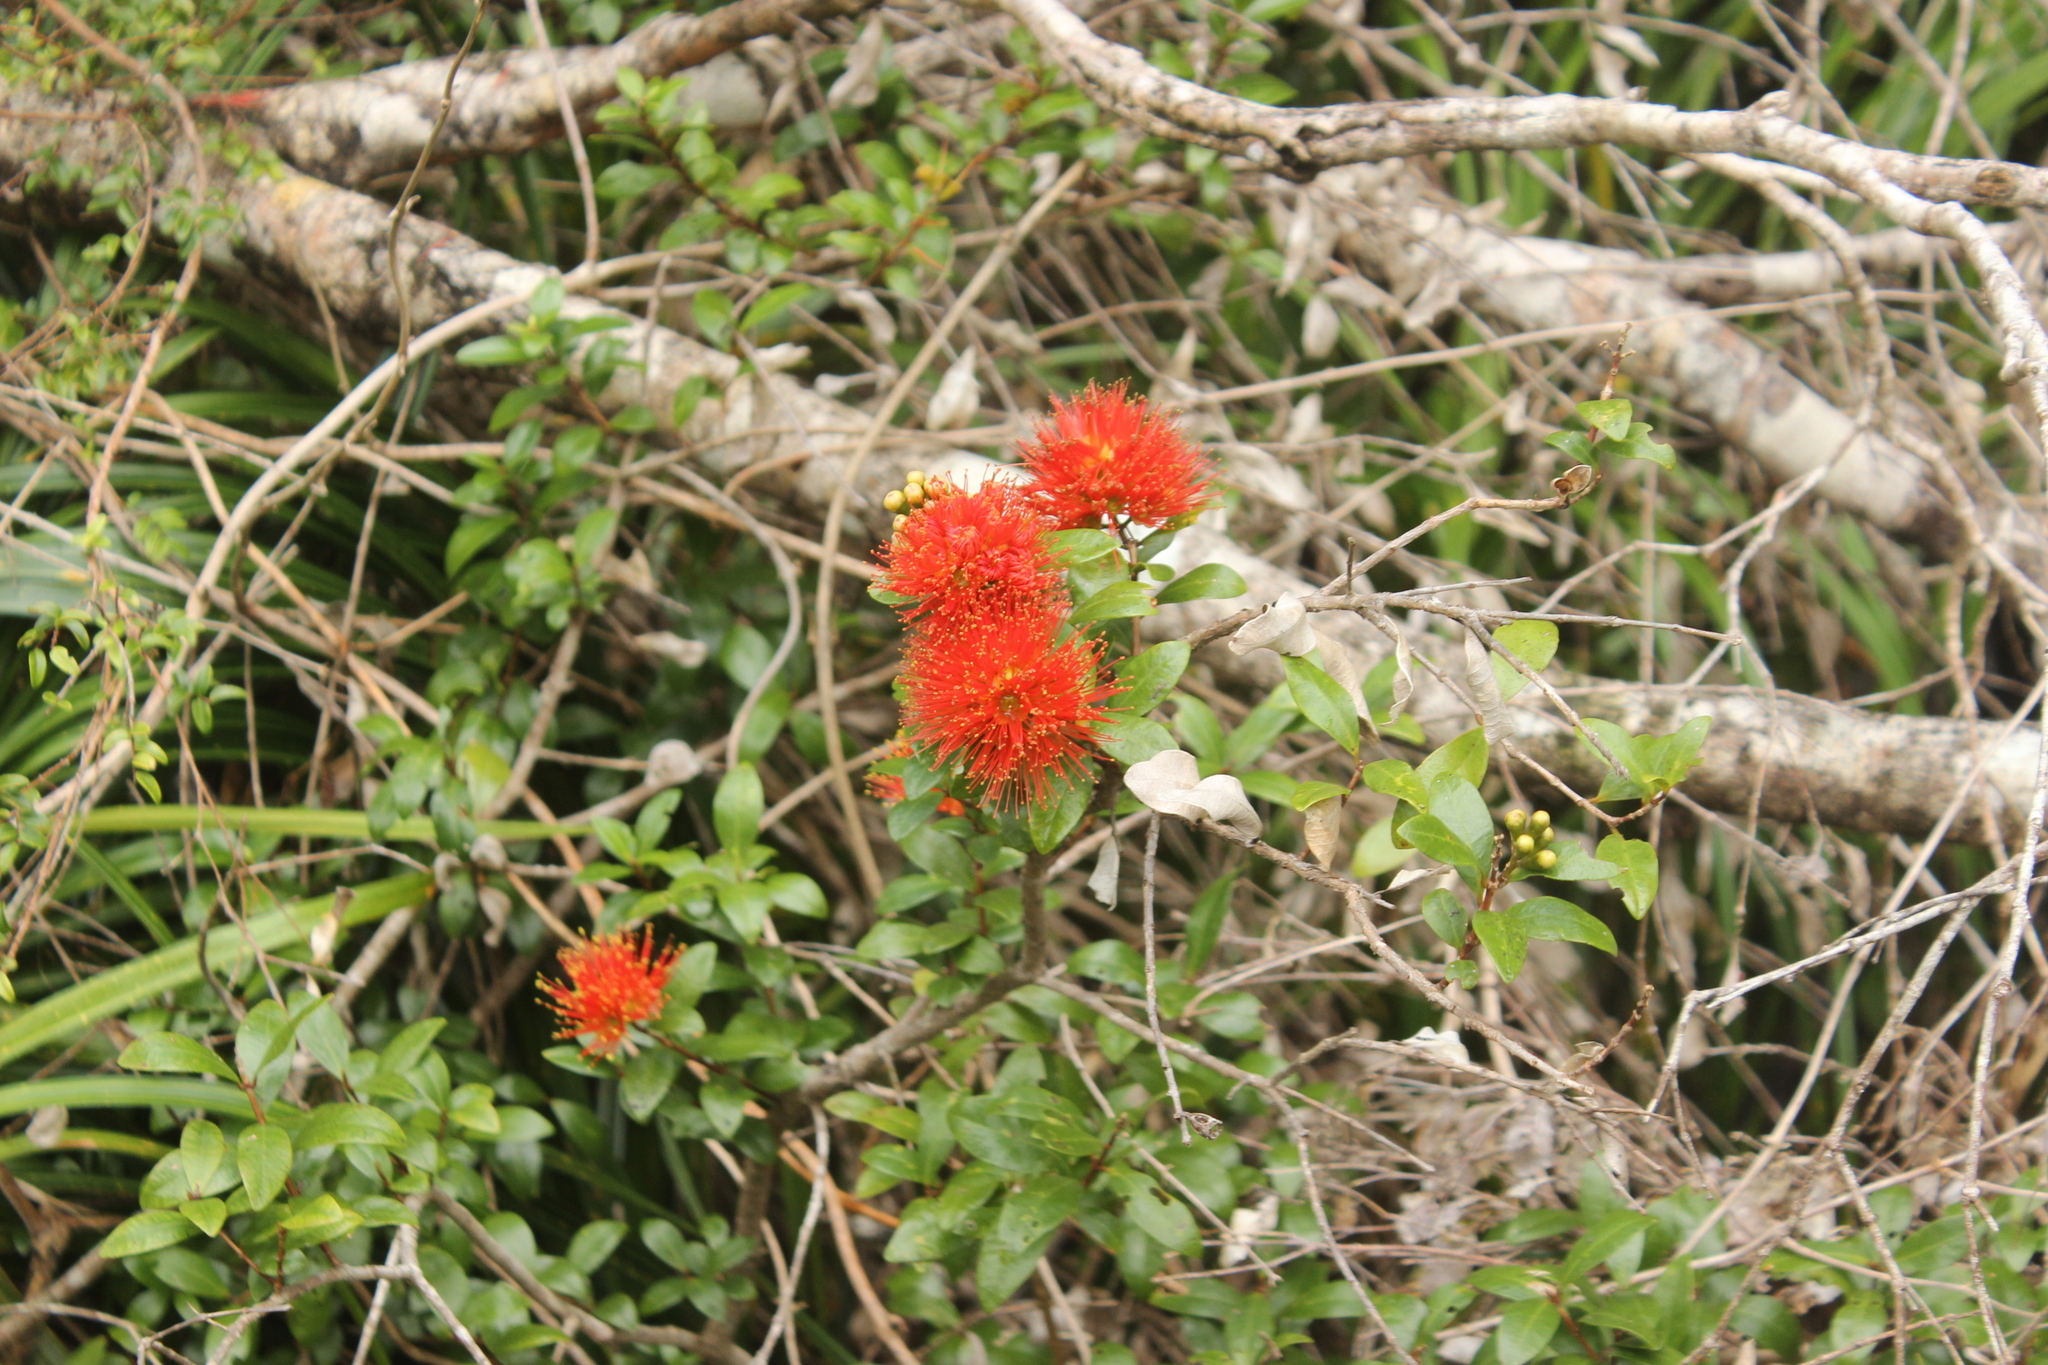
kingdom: Plantae
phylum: Tracheophyta
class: Magnoliopsida
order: Myrtales
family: Myrtaceae
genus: Metrosideros
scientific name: Metrosideros fulgens
